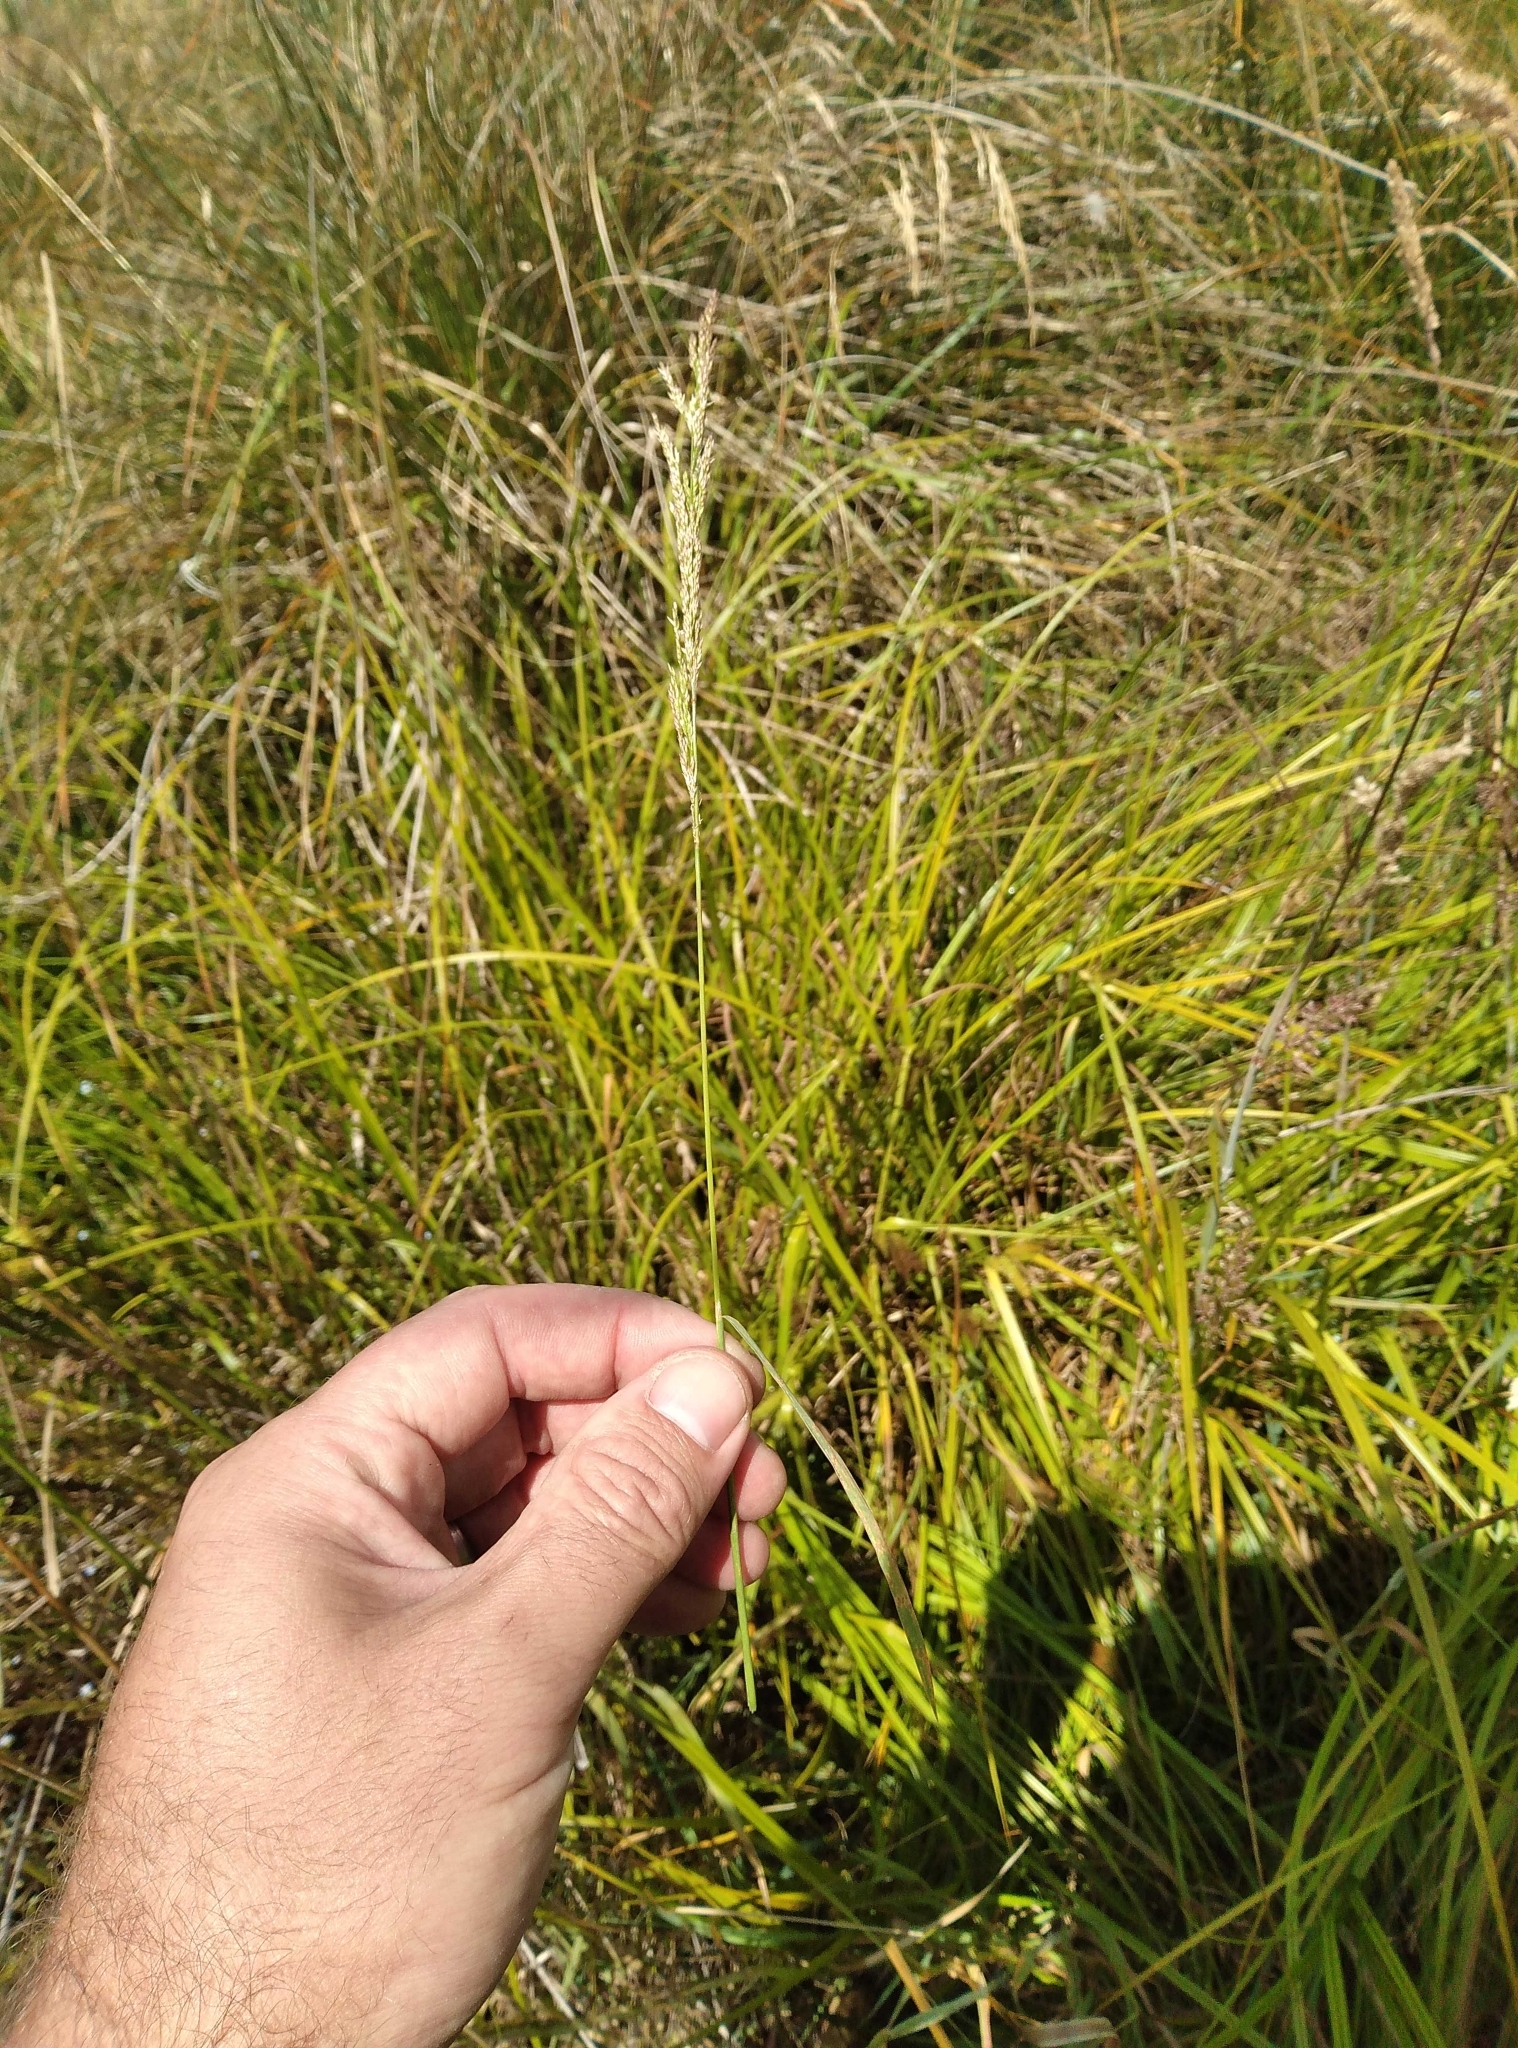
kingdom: Plantae
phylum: Tracheophyta
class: Liliopsida
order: Poales
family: Poaceae
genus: Agrostis
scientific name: Agrostis stolonifera
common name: Creeping bentgrass
